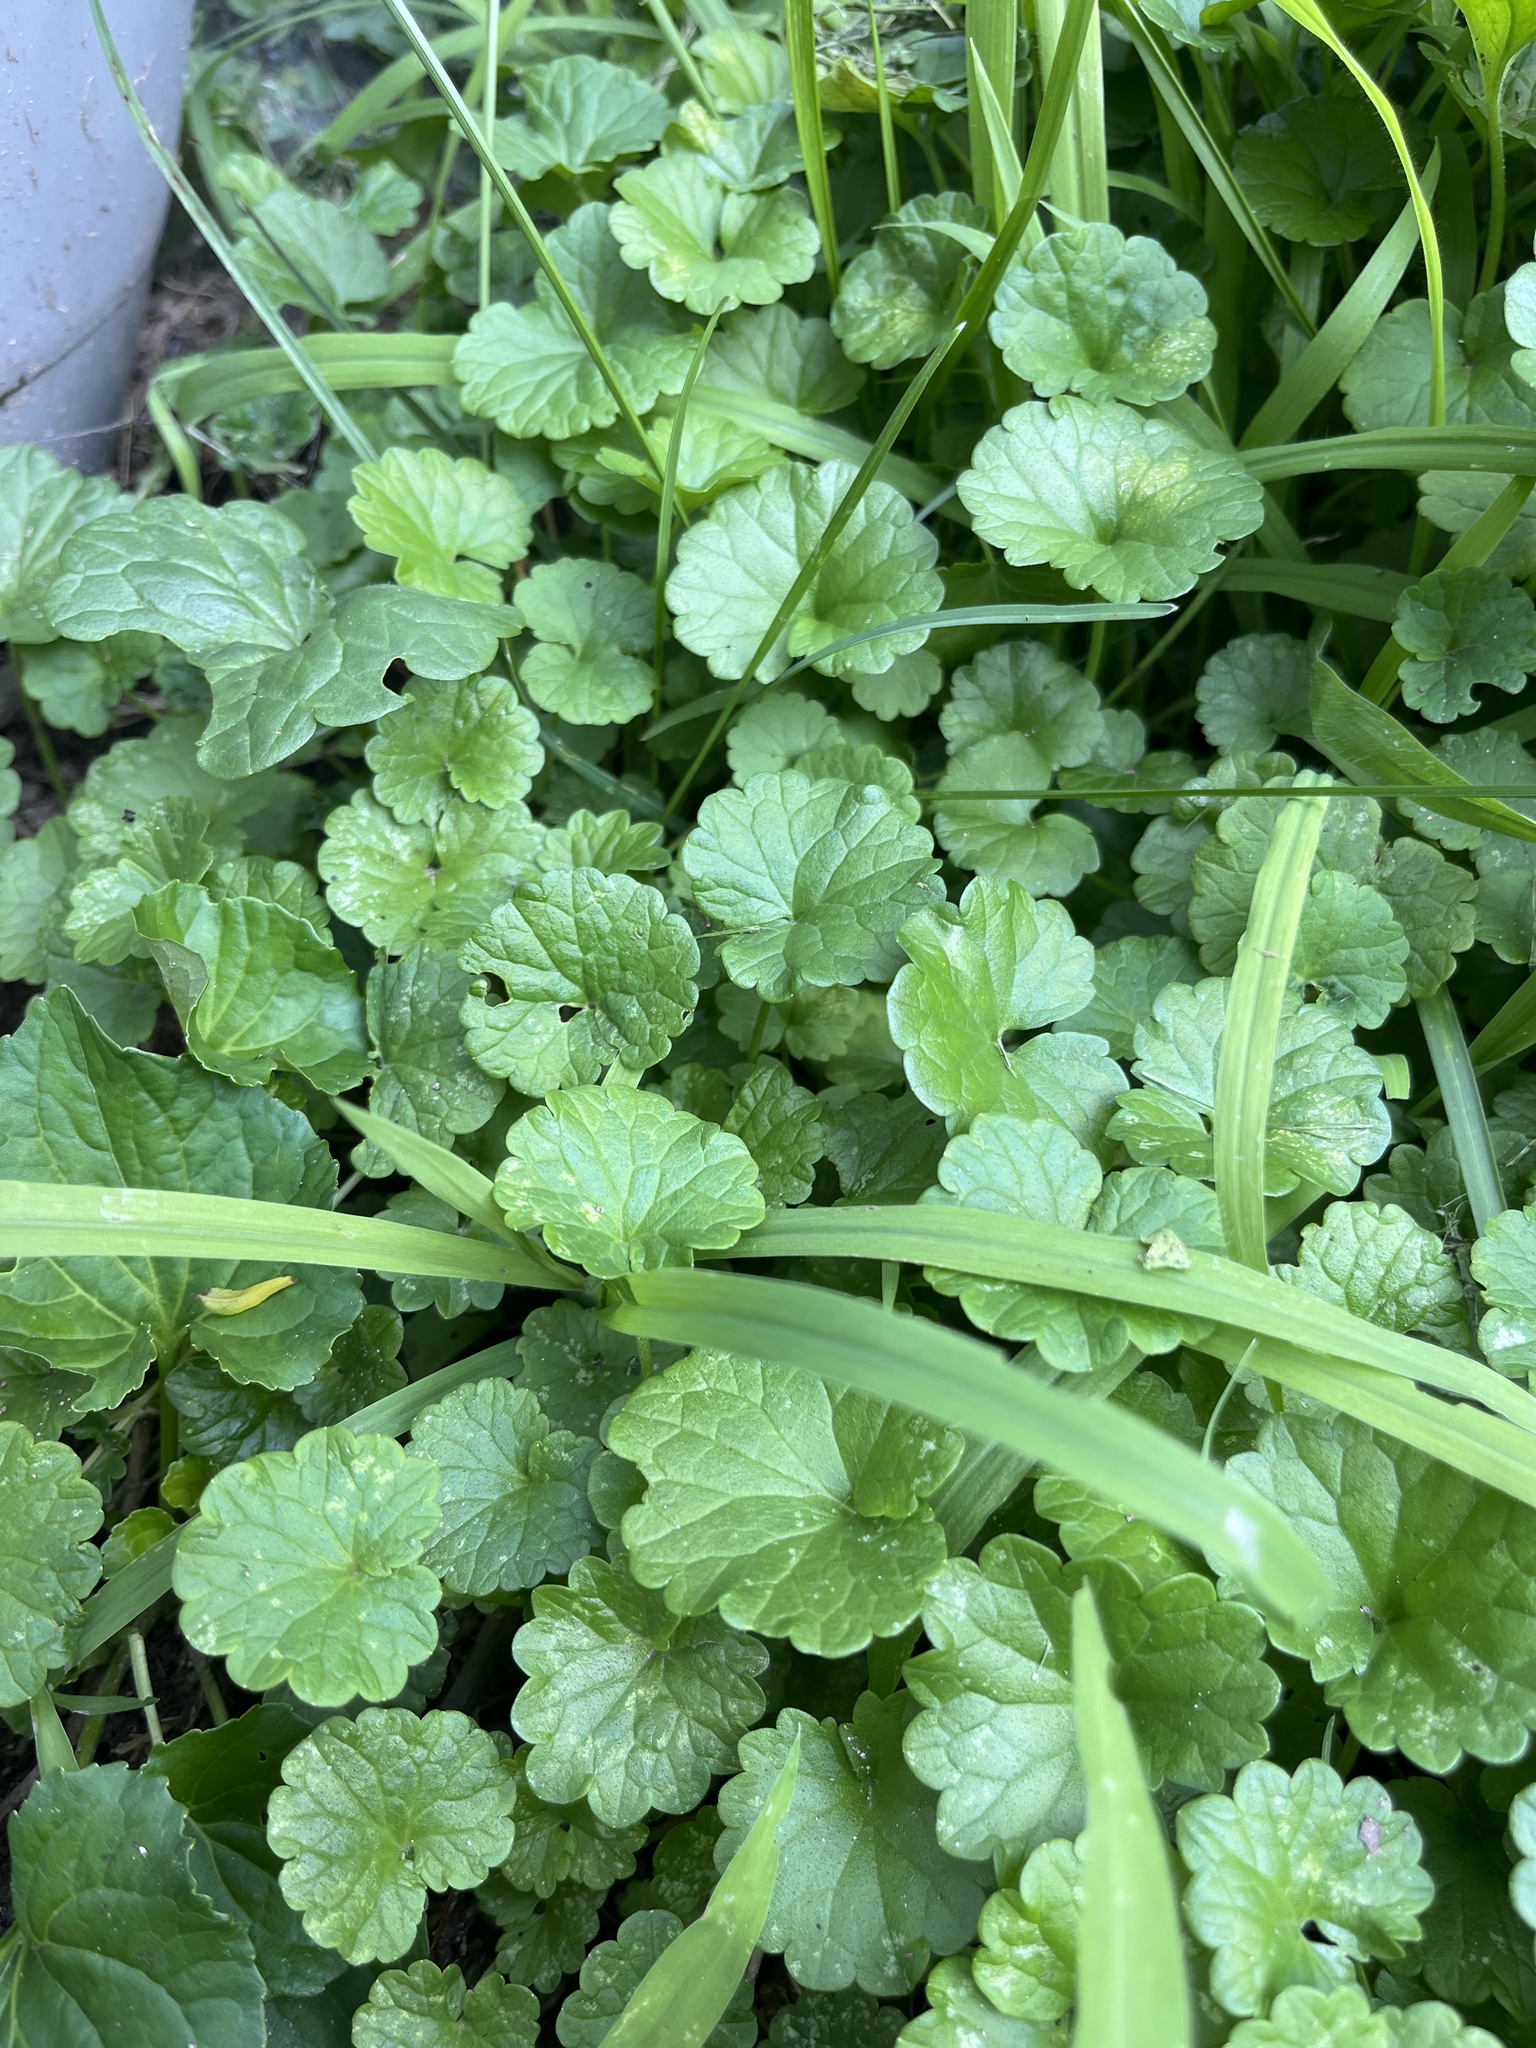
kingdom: Plantae
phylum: Tracheophyta
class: Magnoliopsida
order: Lamiales
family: Lamiaceae
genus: Glechoma
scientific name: Glechoma hederacea
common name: Ground ivy
